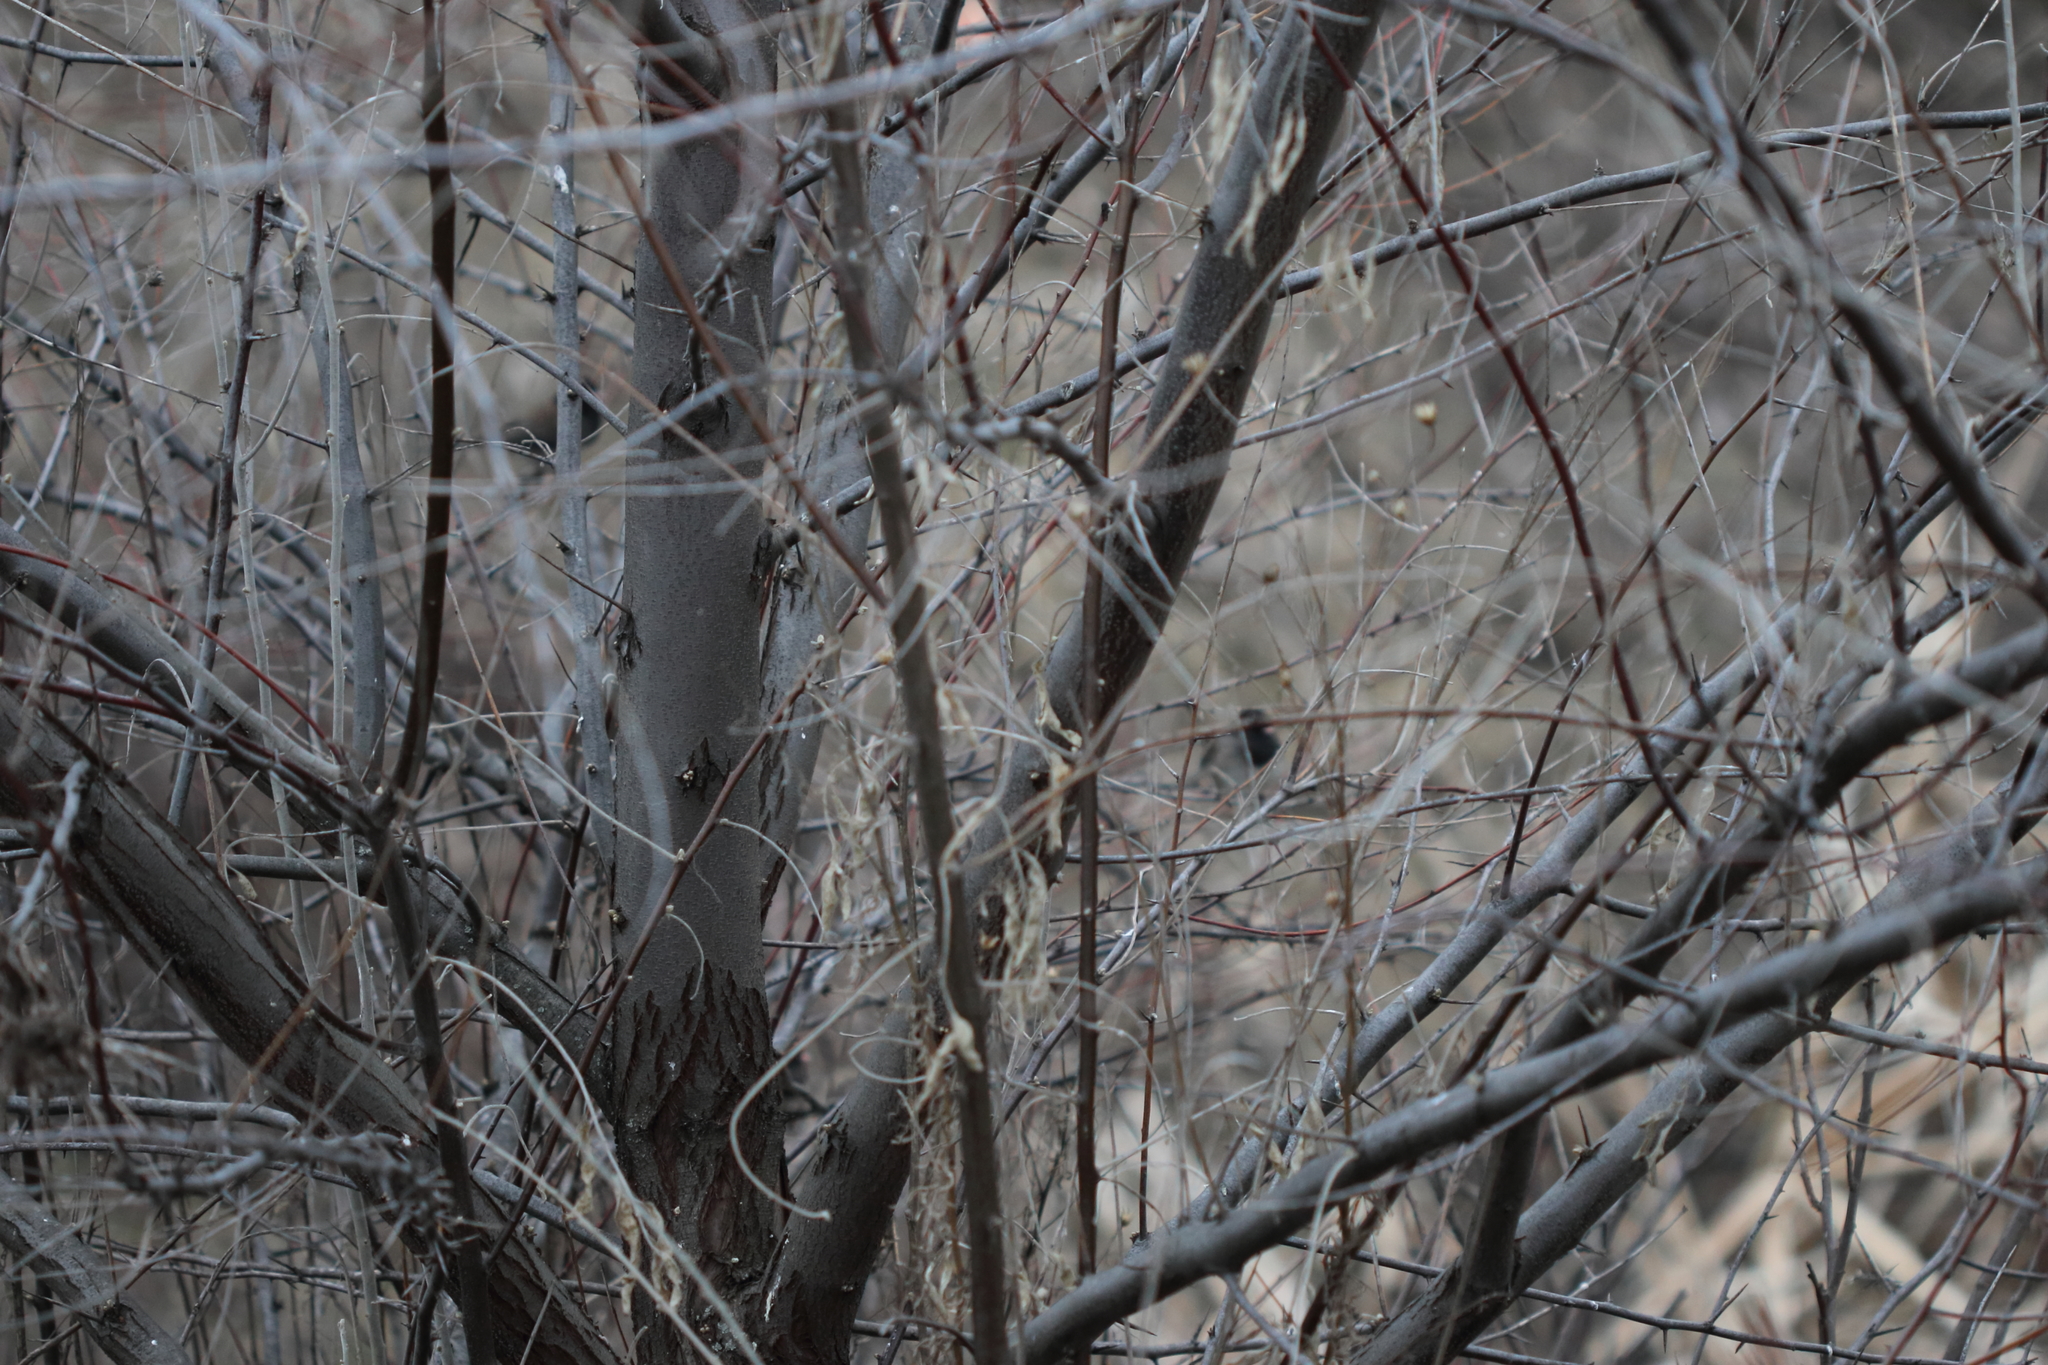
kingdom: Animalia
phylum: Chordata
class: Aves
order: Passeriformes
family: Passerellidae
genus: Junco
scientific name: Junco hyemalis
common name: Dark-eyed junco
